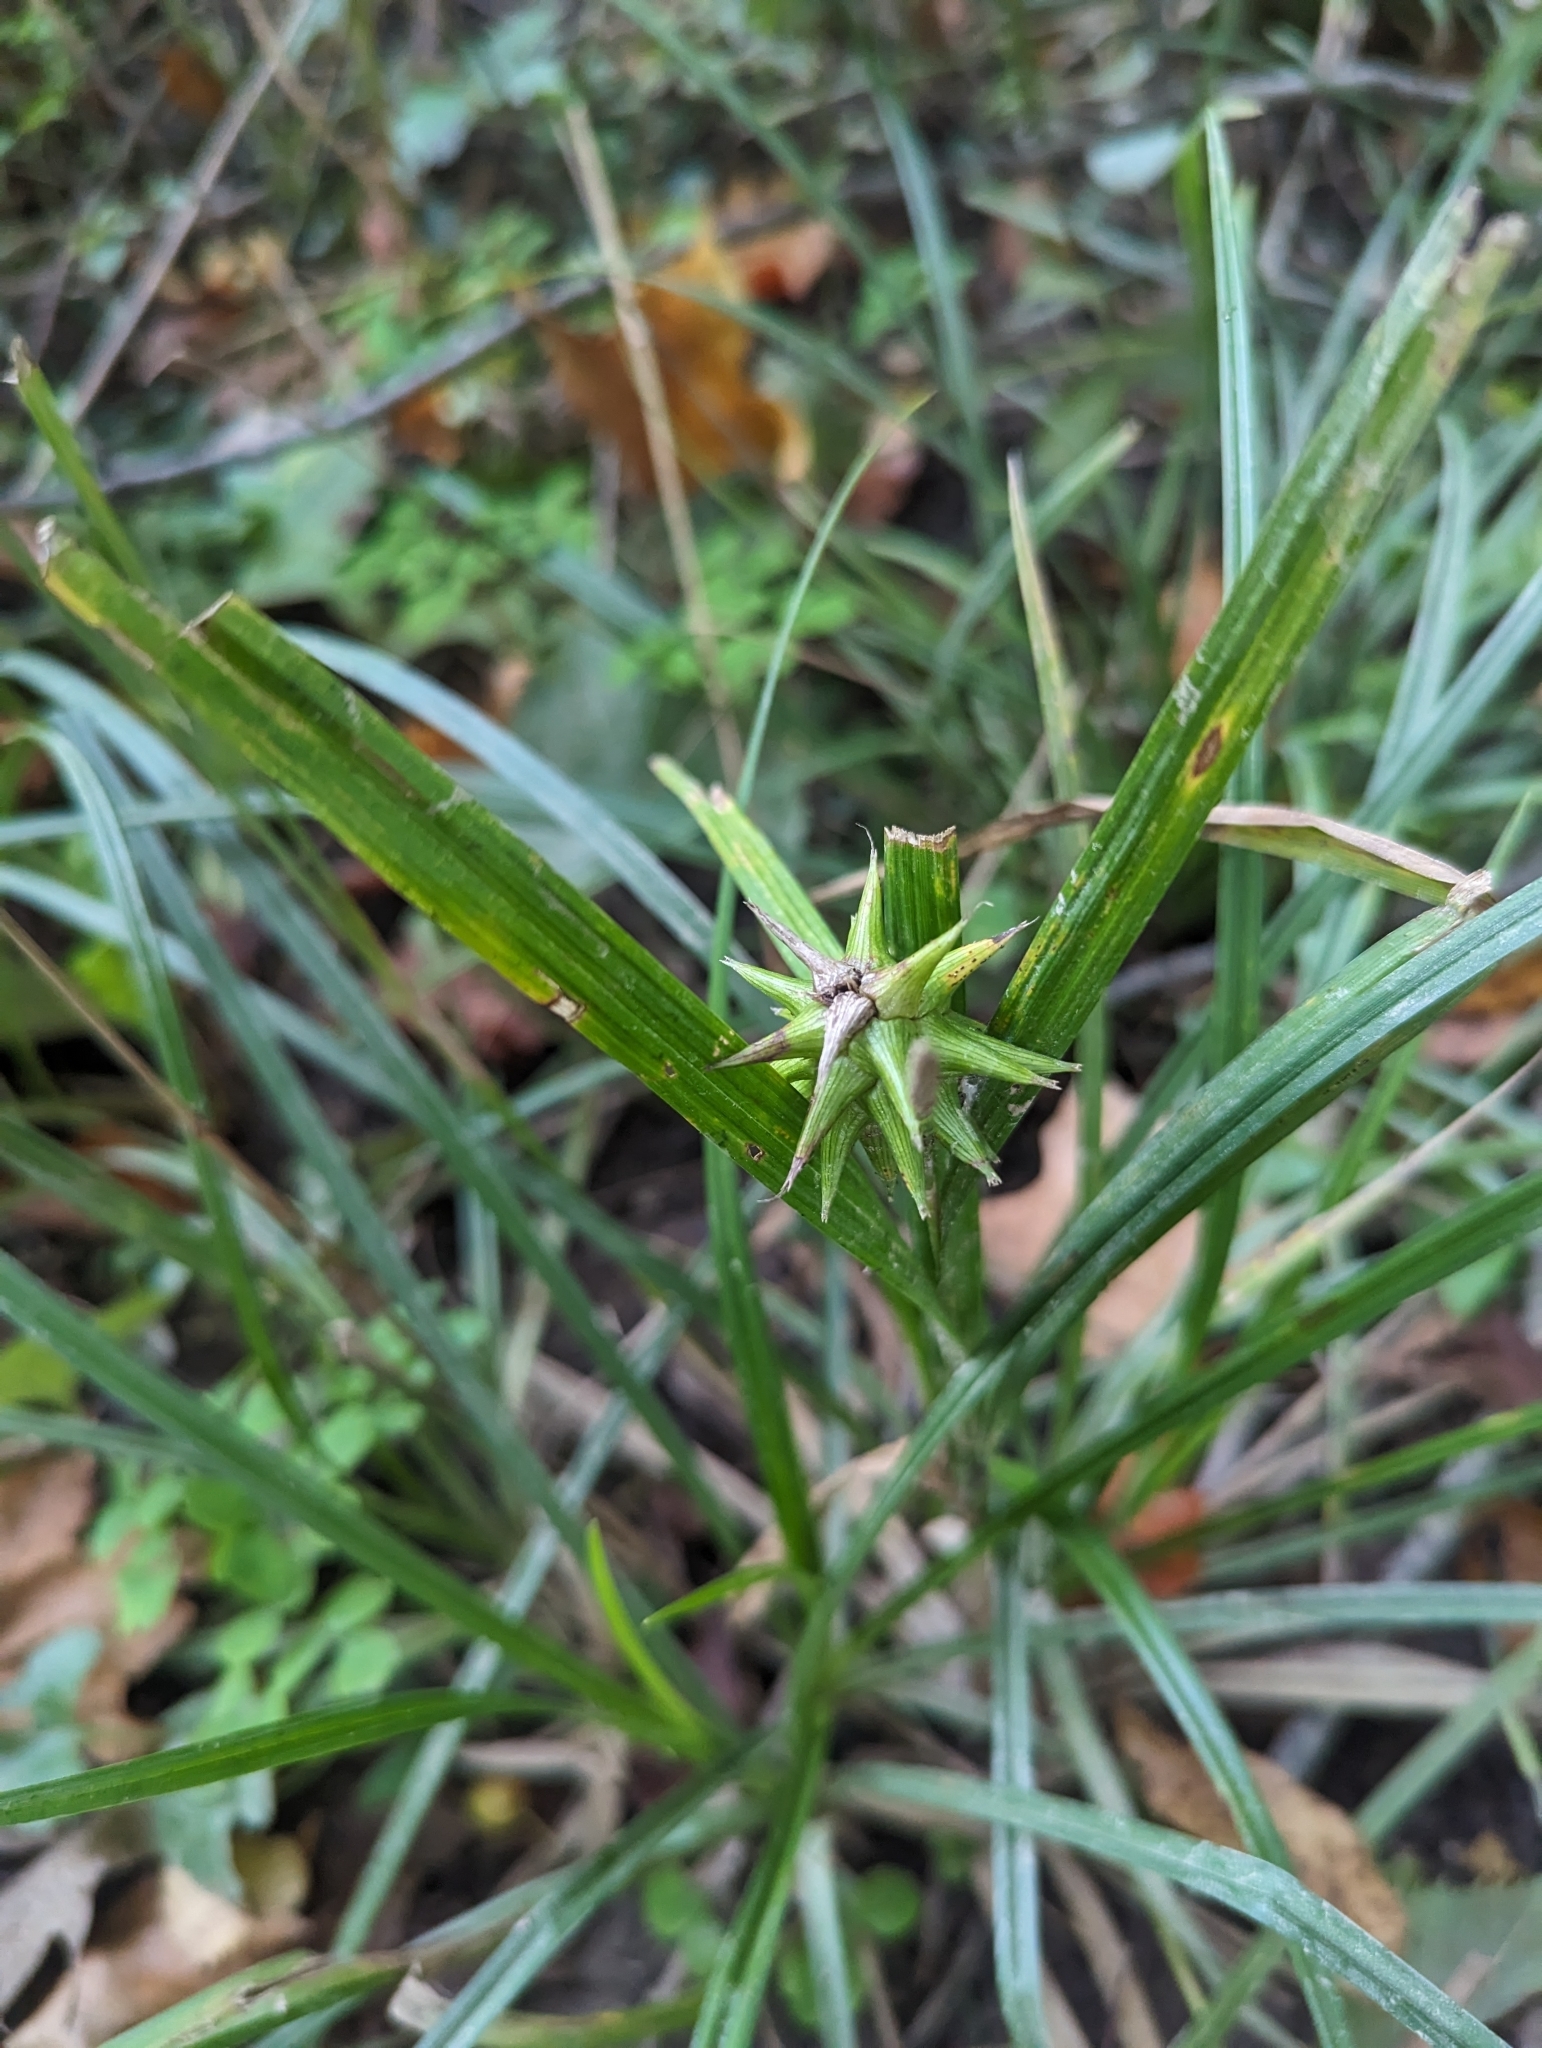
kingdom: Plantae
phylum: Tracheophyta
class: Liliopsida
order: Poales
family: Cyperaceae
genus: Carex
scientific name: Carex grayi
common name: Asa gray's sedge
